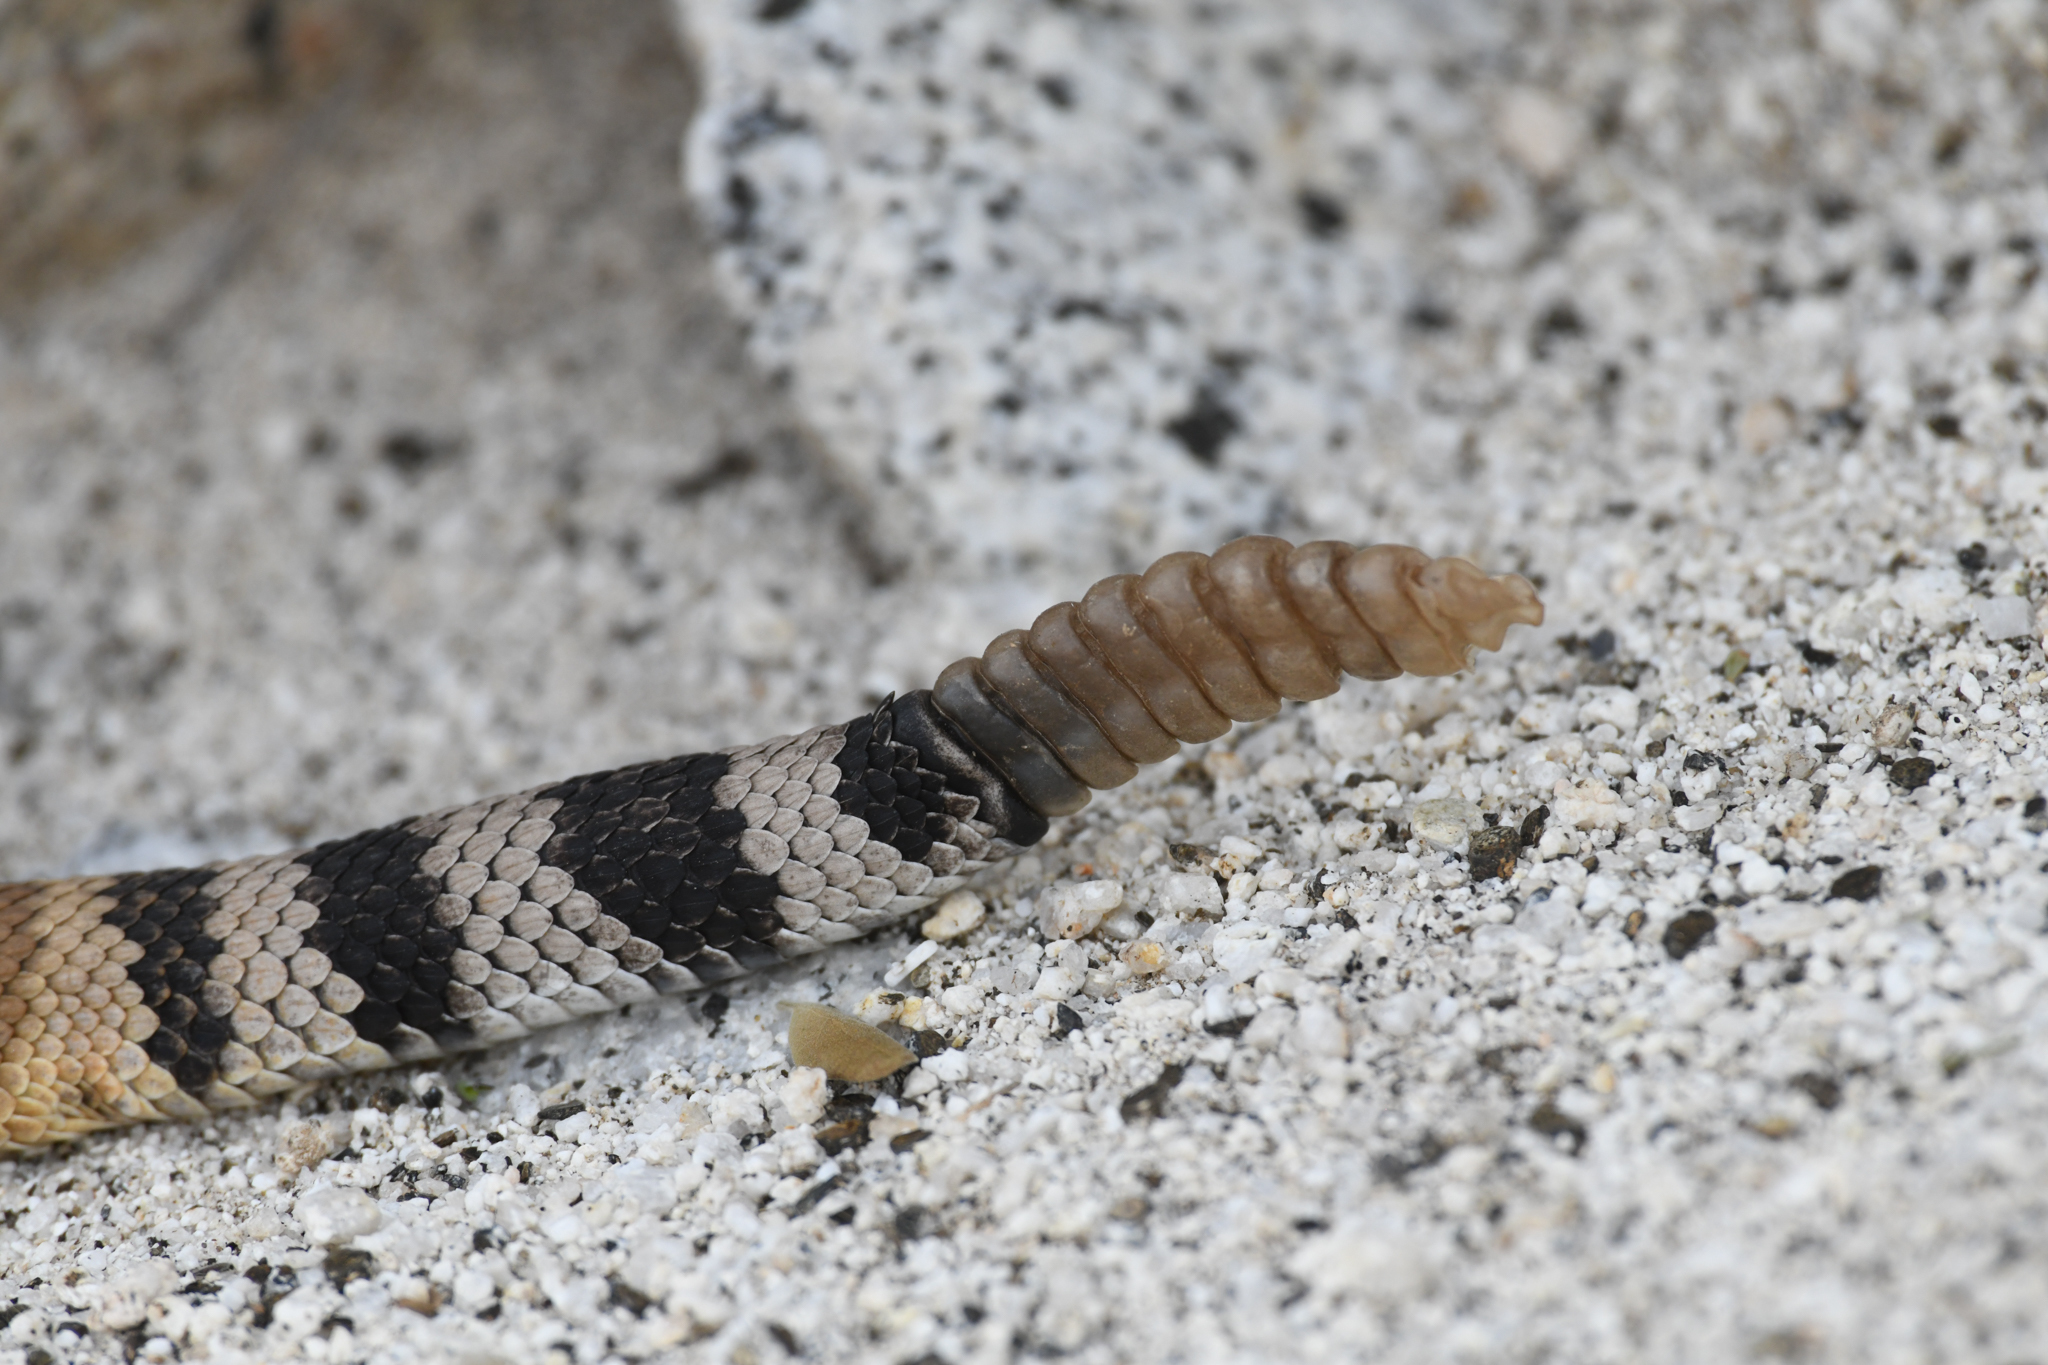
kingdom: Animalia
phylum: Chordata
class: Squamata
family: Viperidae
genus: Crotalus
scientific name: Crotalus ruber
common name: Red diamond rattlesnake
